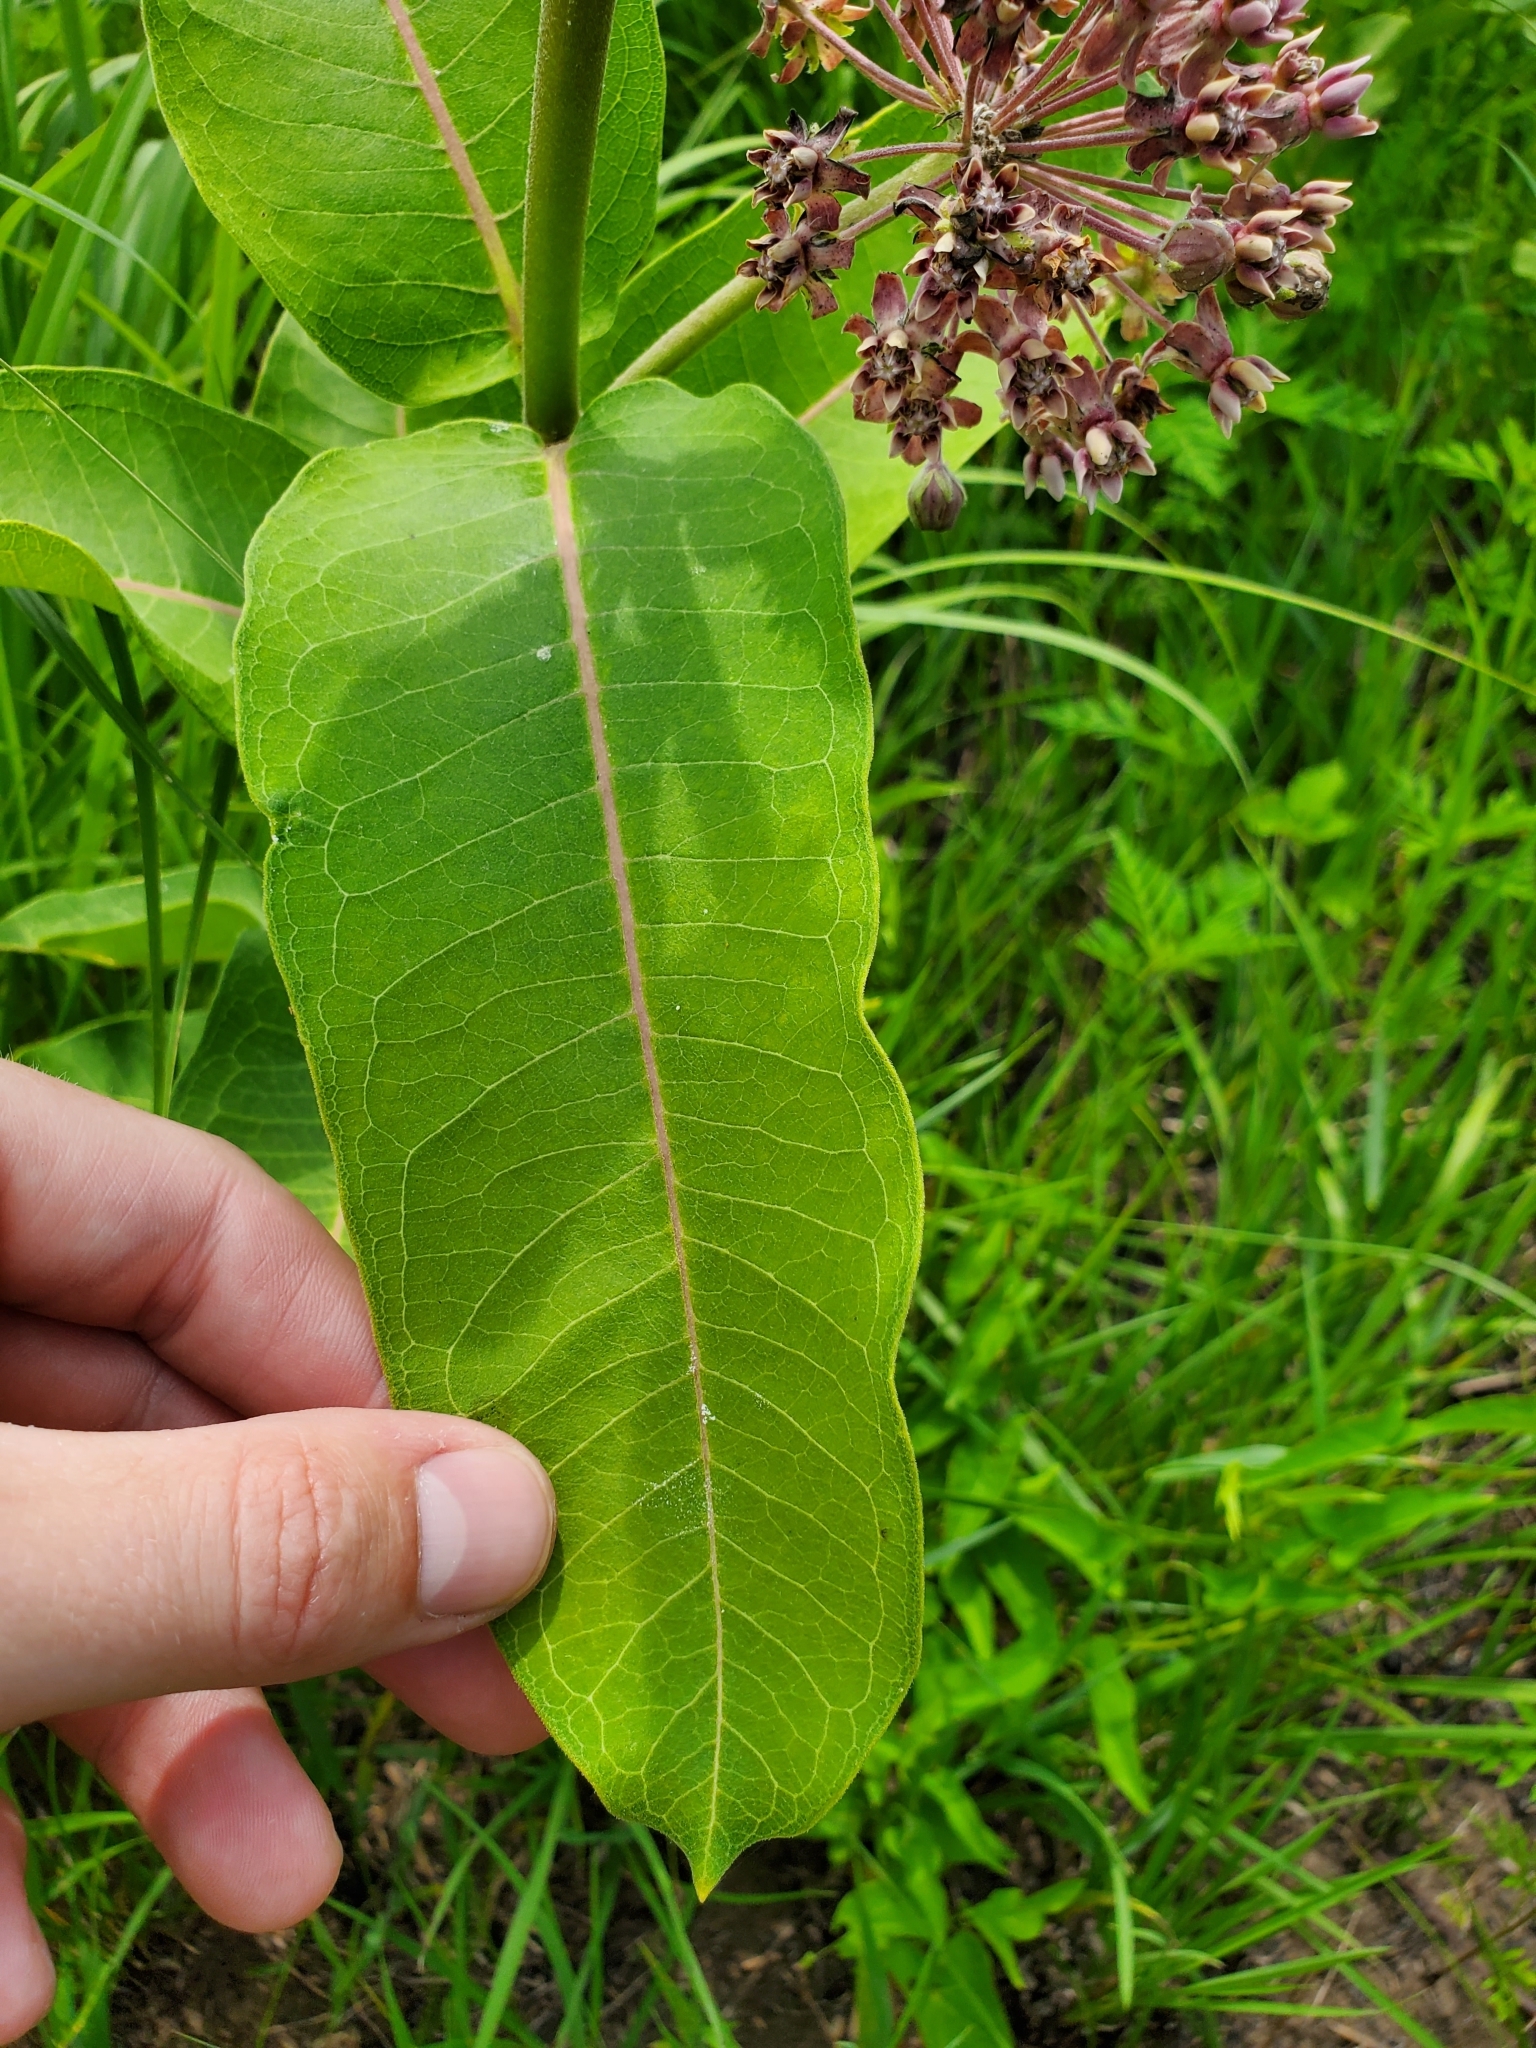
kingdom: Plantae
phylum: Tracheophyta
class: Magnoliopsida
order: Gentianales
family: Apocynaceae
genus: Asclepias
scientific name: Asclepias syriaca
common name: Common milkweed
